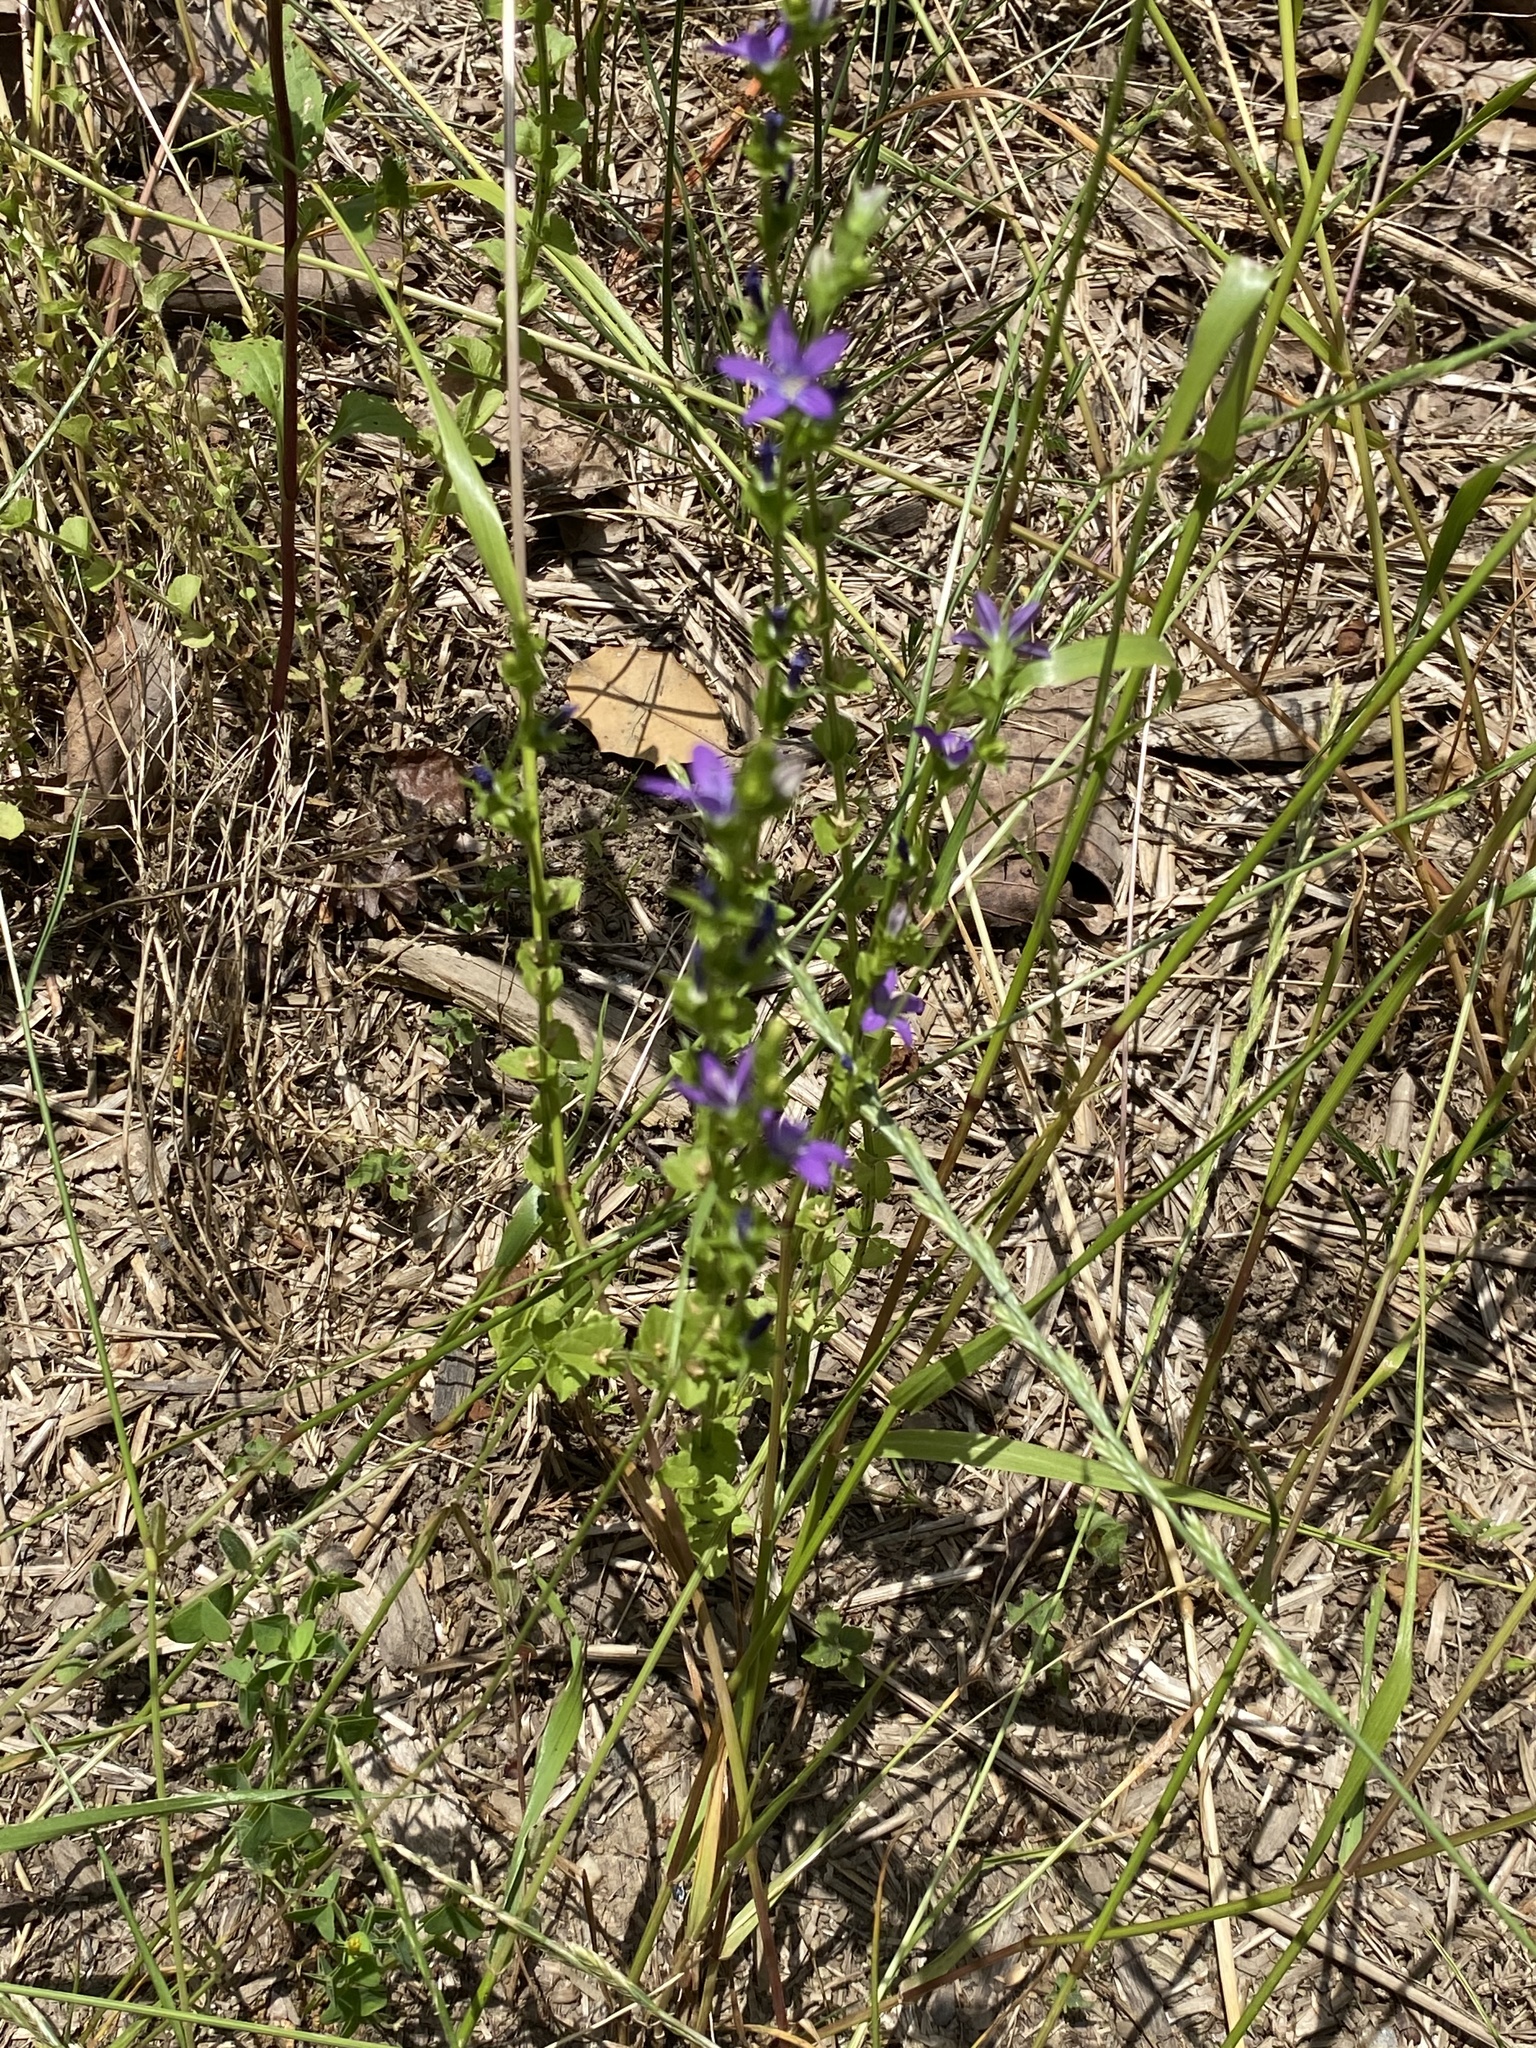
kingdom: Plantae
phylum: Tracheophyta
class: Magnoliopsida
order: Asterales
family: Campanulaceae
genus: Triodanis
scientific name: Triodanis perfoliata
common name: Clasping venus' looking-glass
